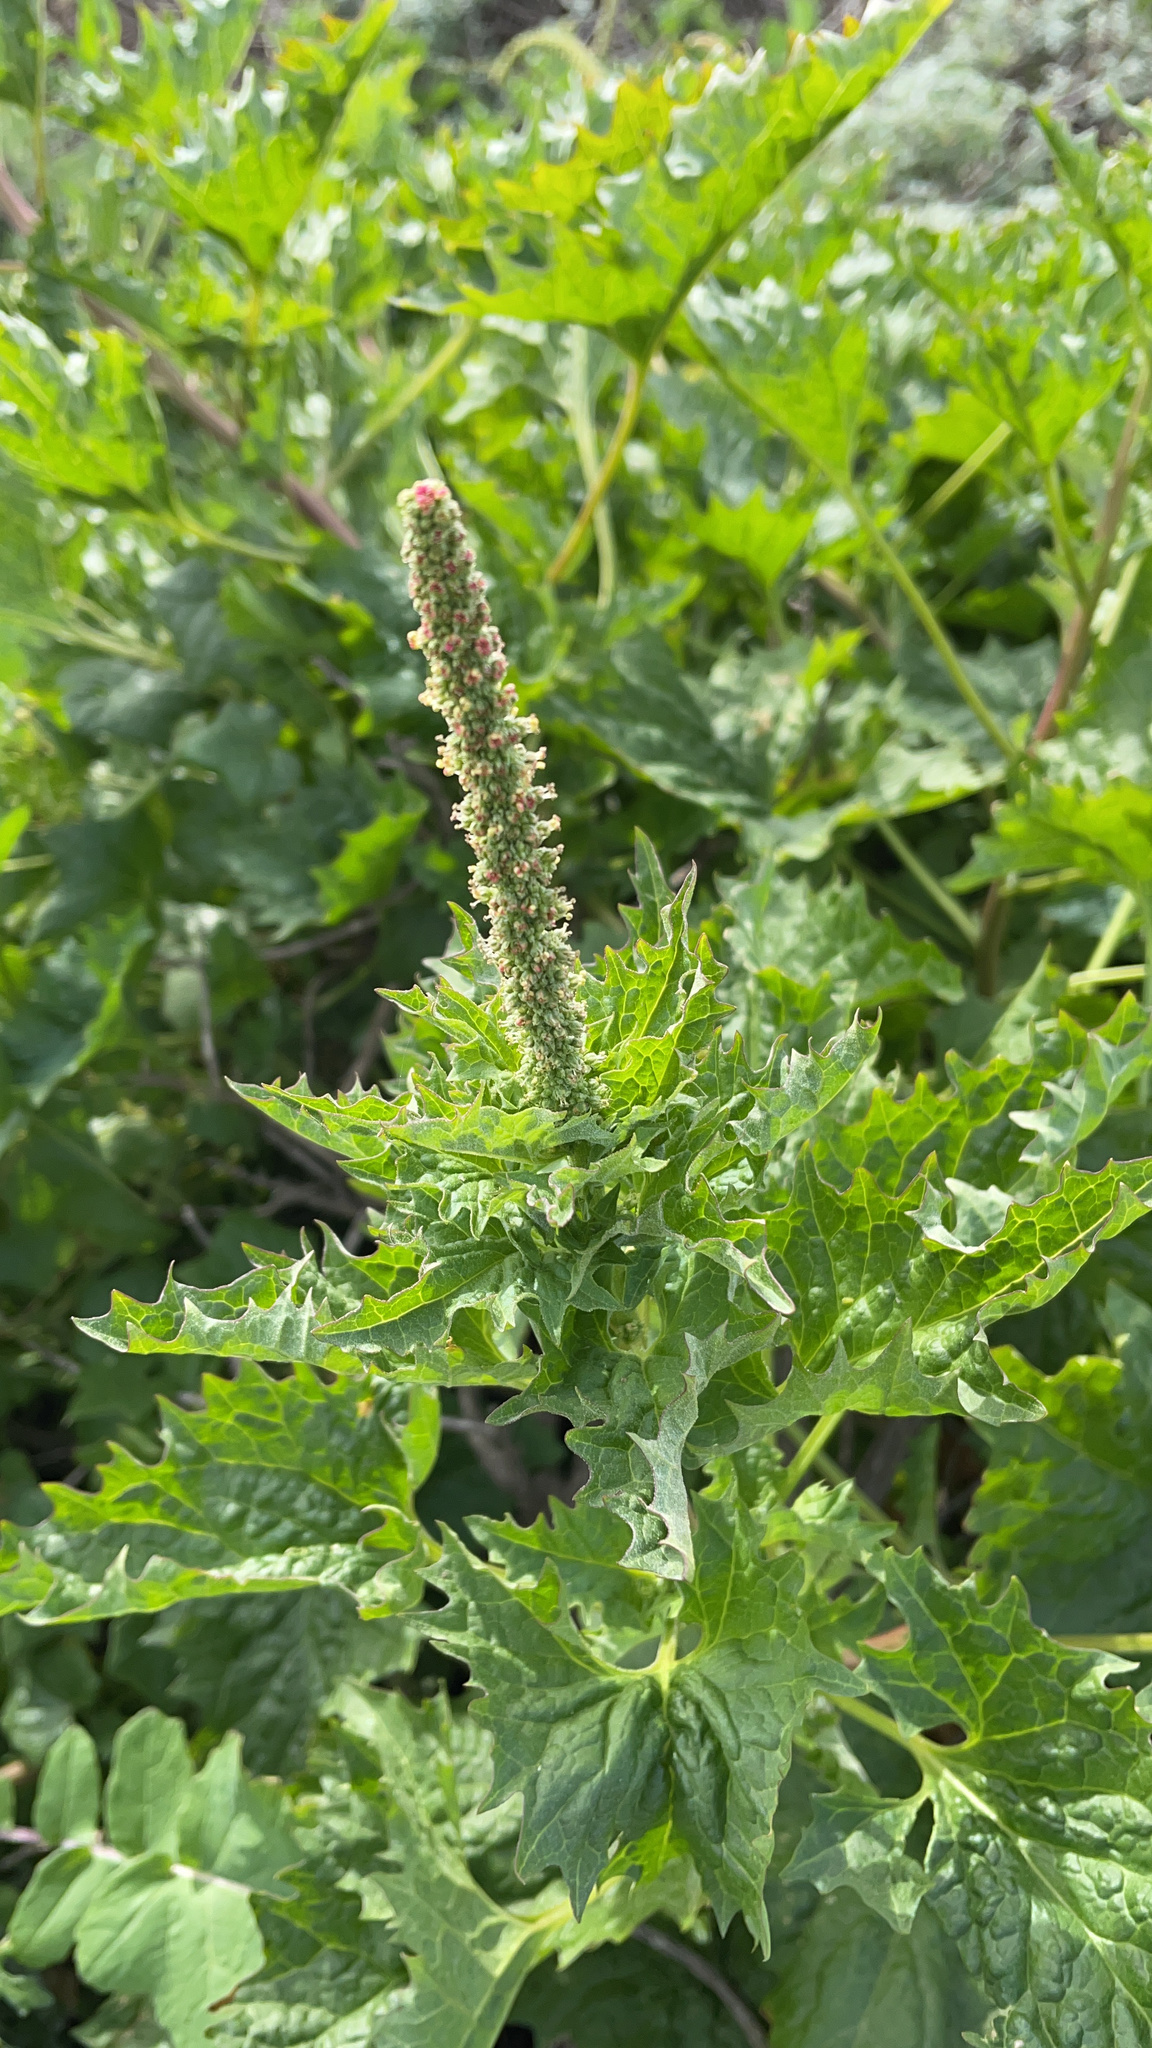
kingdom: Plantae
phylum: Tracheophyta
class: Magnoliopsida
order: Caryophyllales
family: Amaranthaceae
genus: Blitum
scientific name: Blitum californicum
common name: California goosefoot
